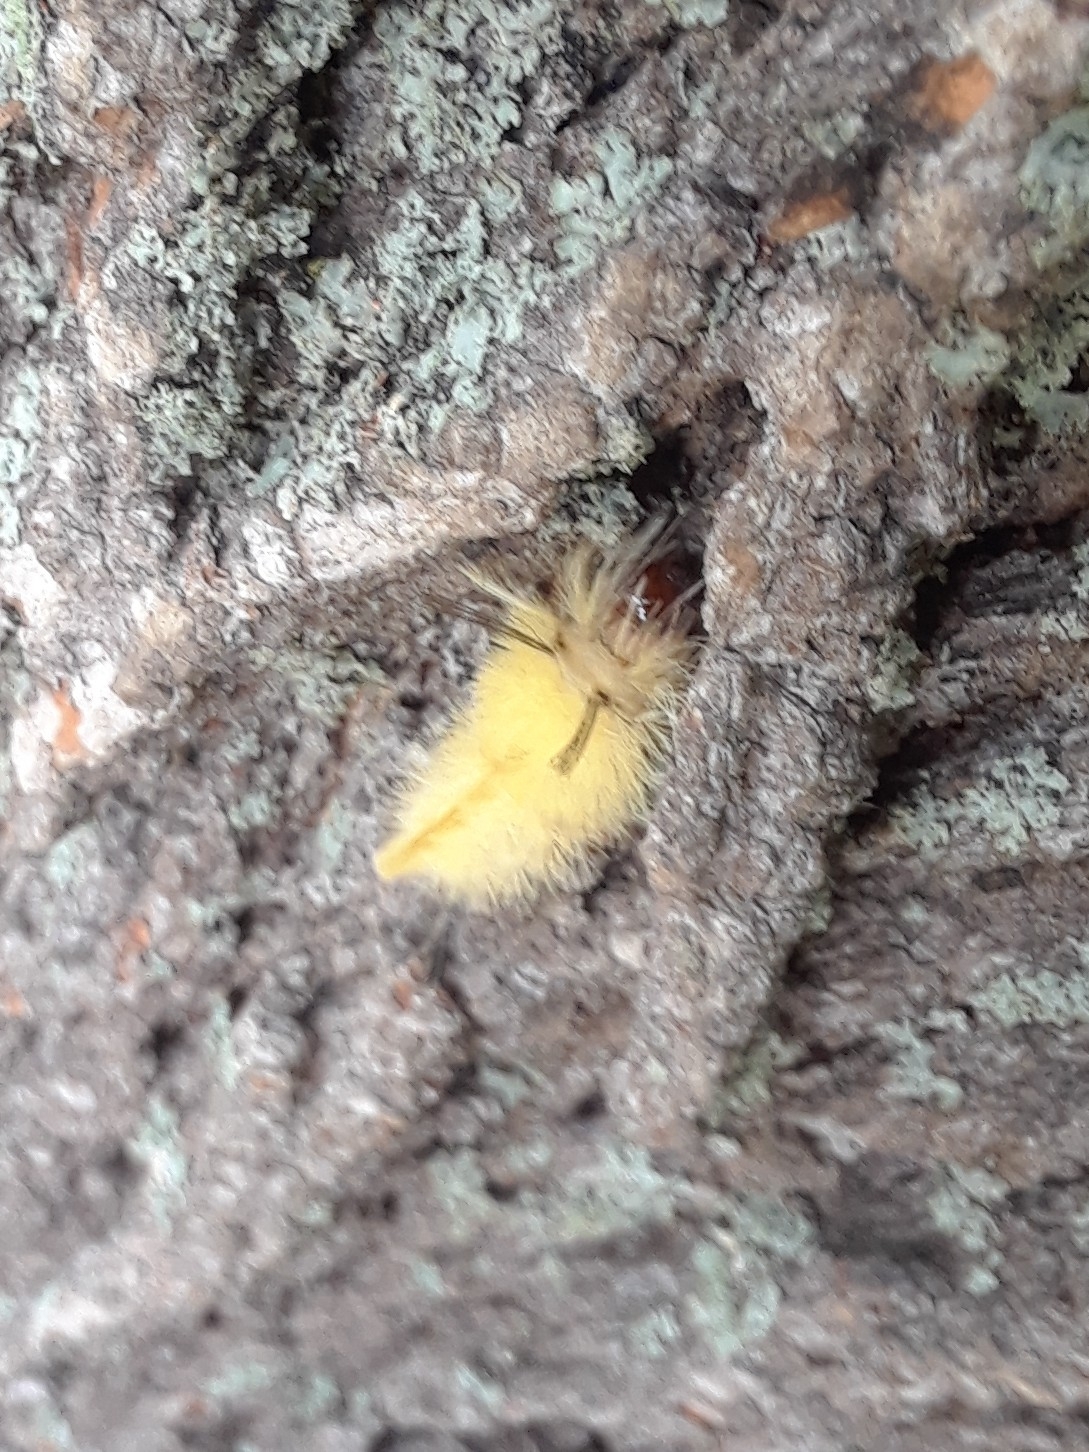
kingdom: Animalia
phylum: Arthropoda
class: Insecta
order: Lepidoptera
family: Erebidae
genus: Halysidota
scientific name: Halysidota tessellaris
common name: Banded tussock moth
